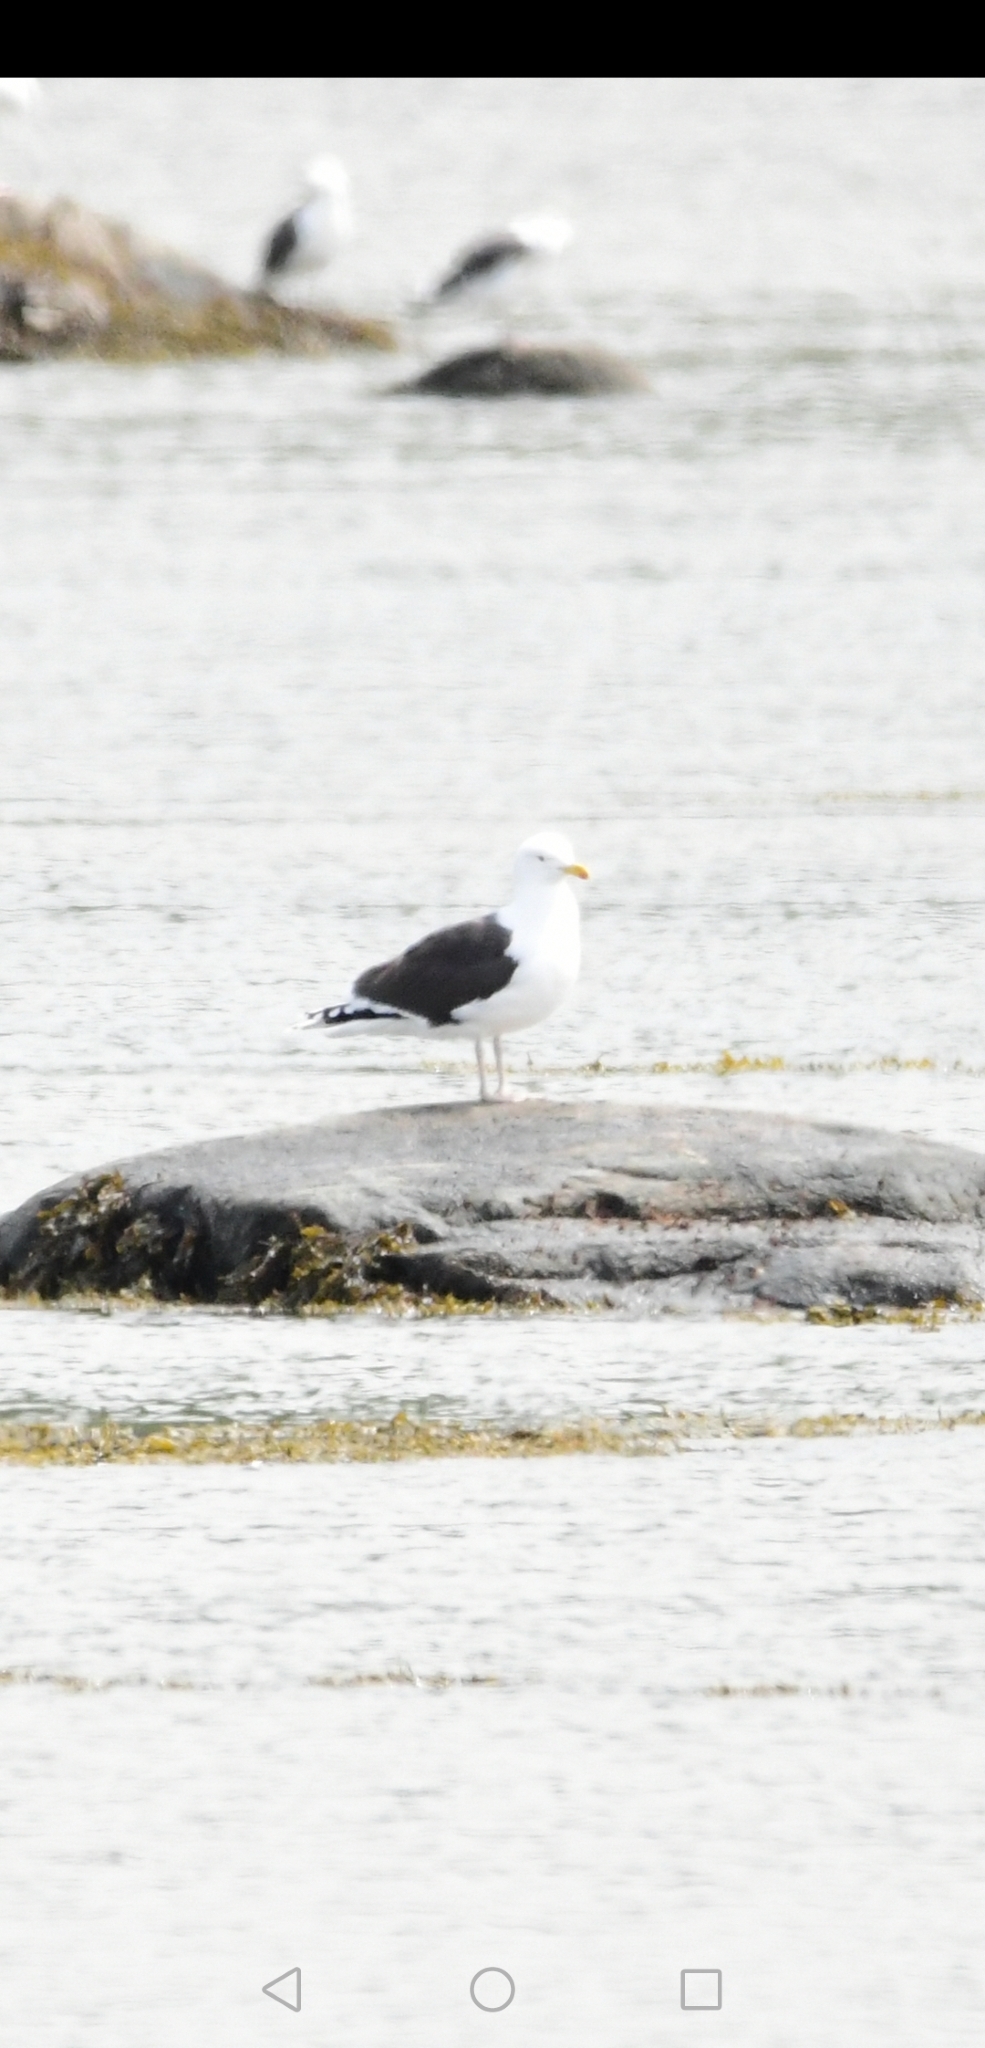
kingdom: Animalia
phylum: Chordata
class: Aves
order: Charadriiformes
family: Laridae
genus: Larus
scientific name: Larus marinus
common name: Great black-backed gull
